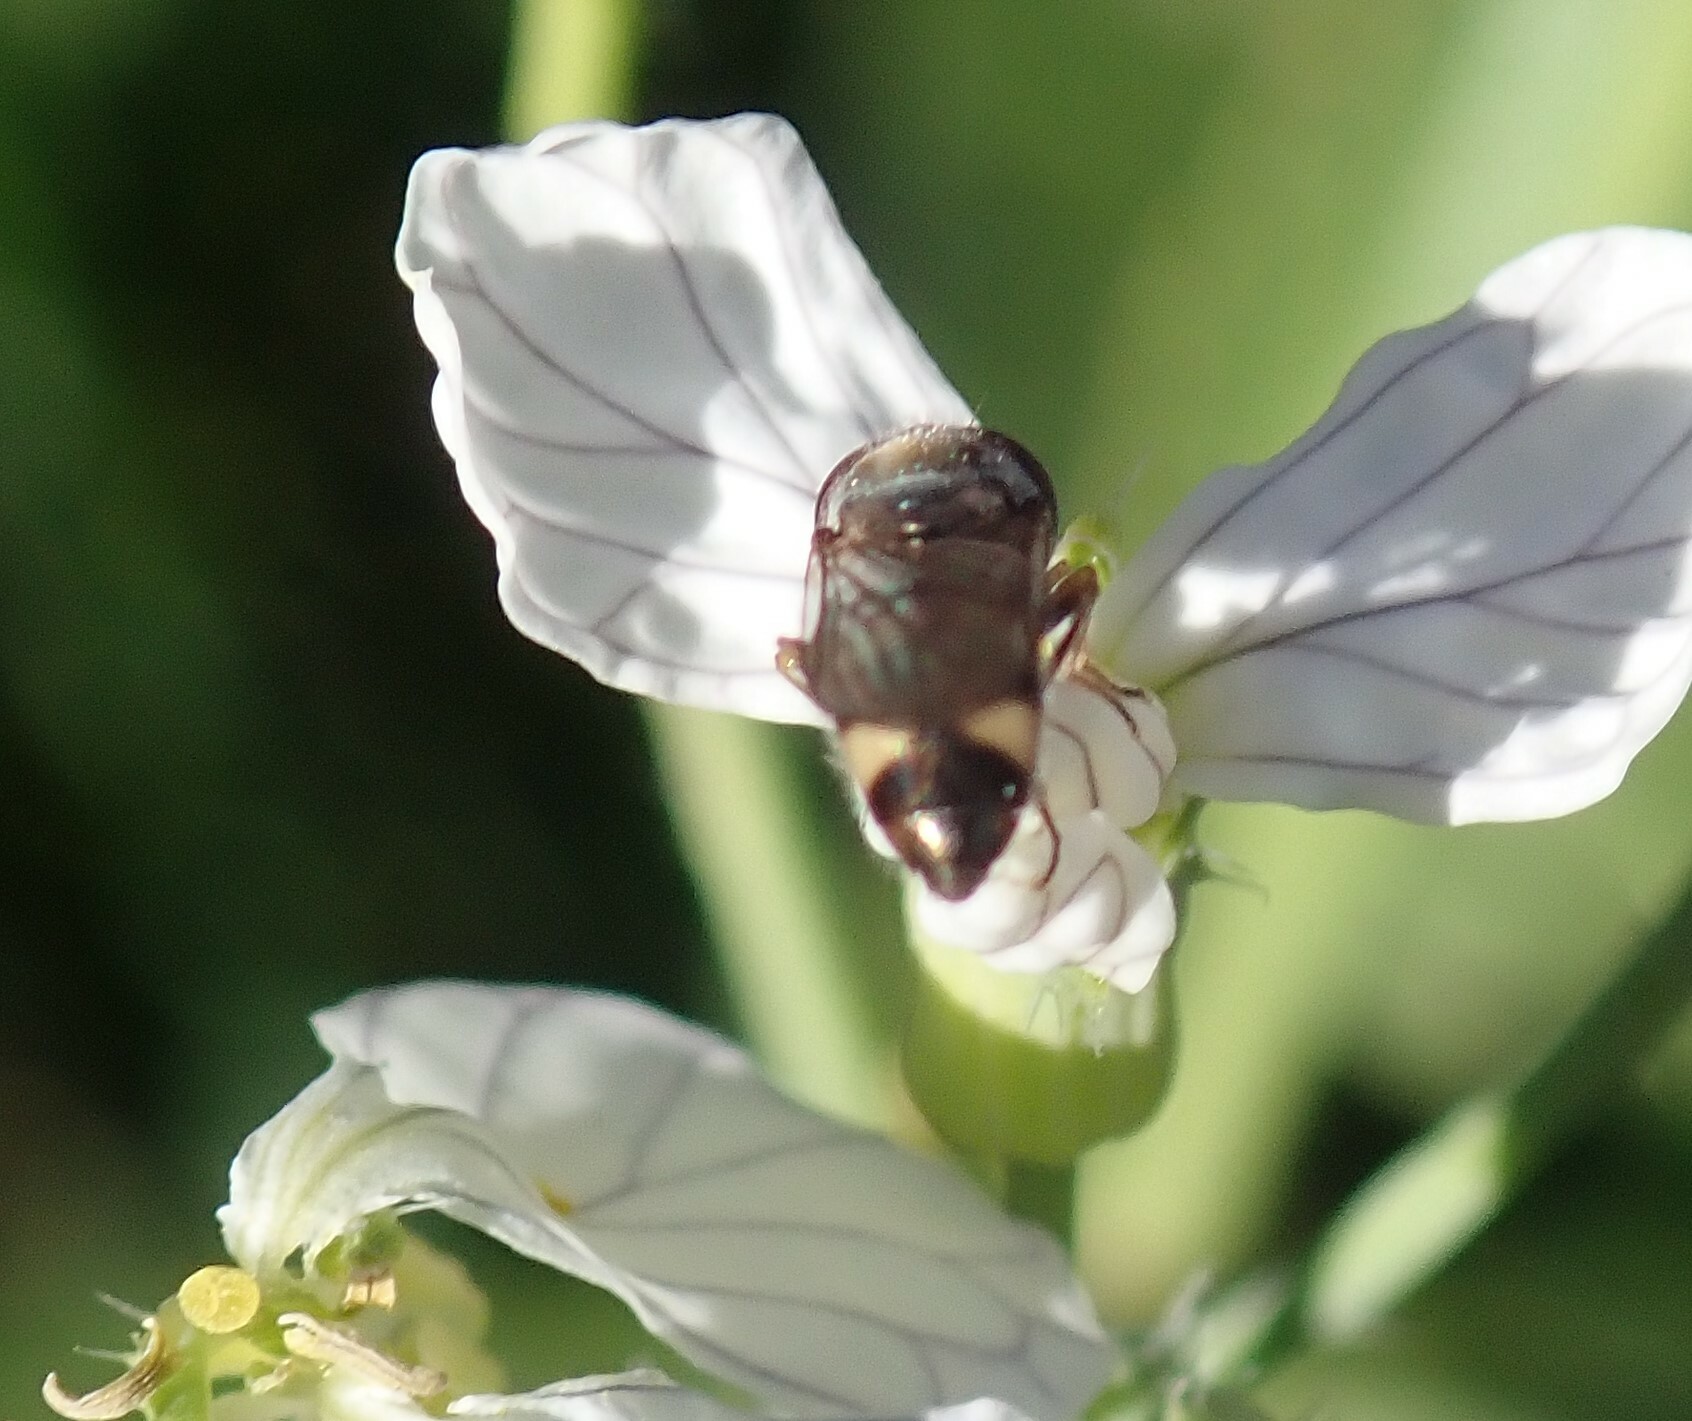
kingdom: Animalia
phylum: Arthropoda
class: Insecta
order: Diptera
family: Syrphidae
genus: Platycheirus
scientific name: Platycheirus trichopus
